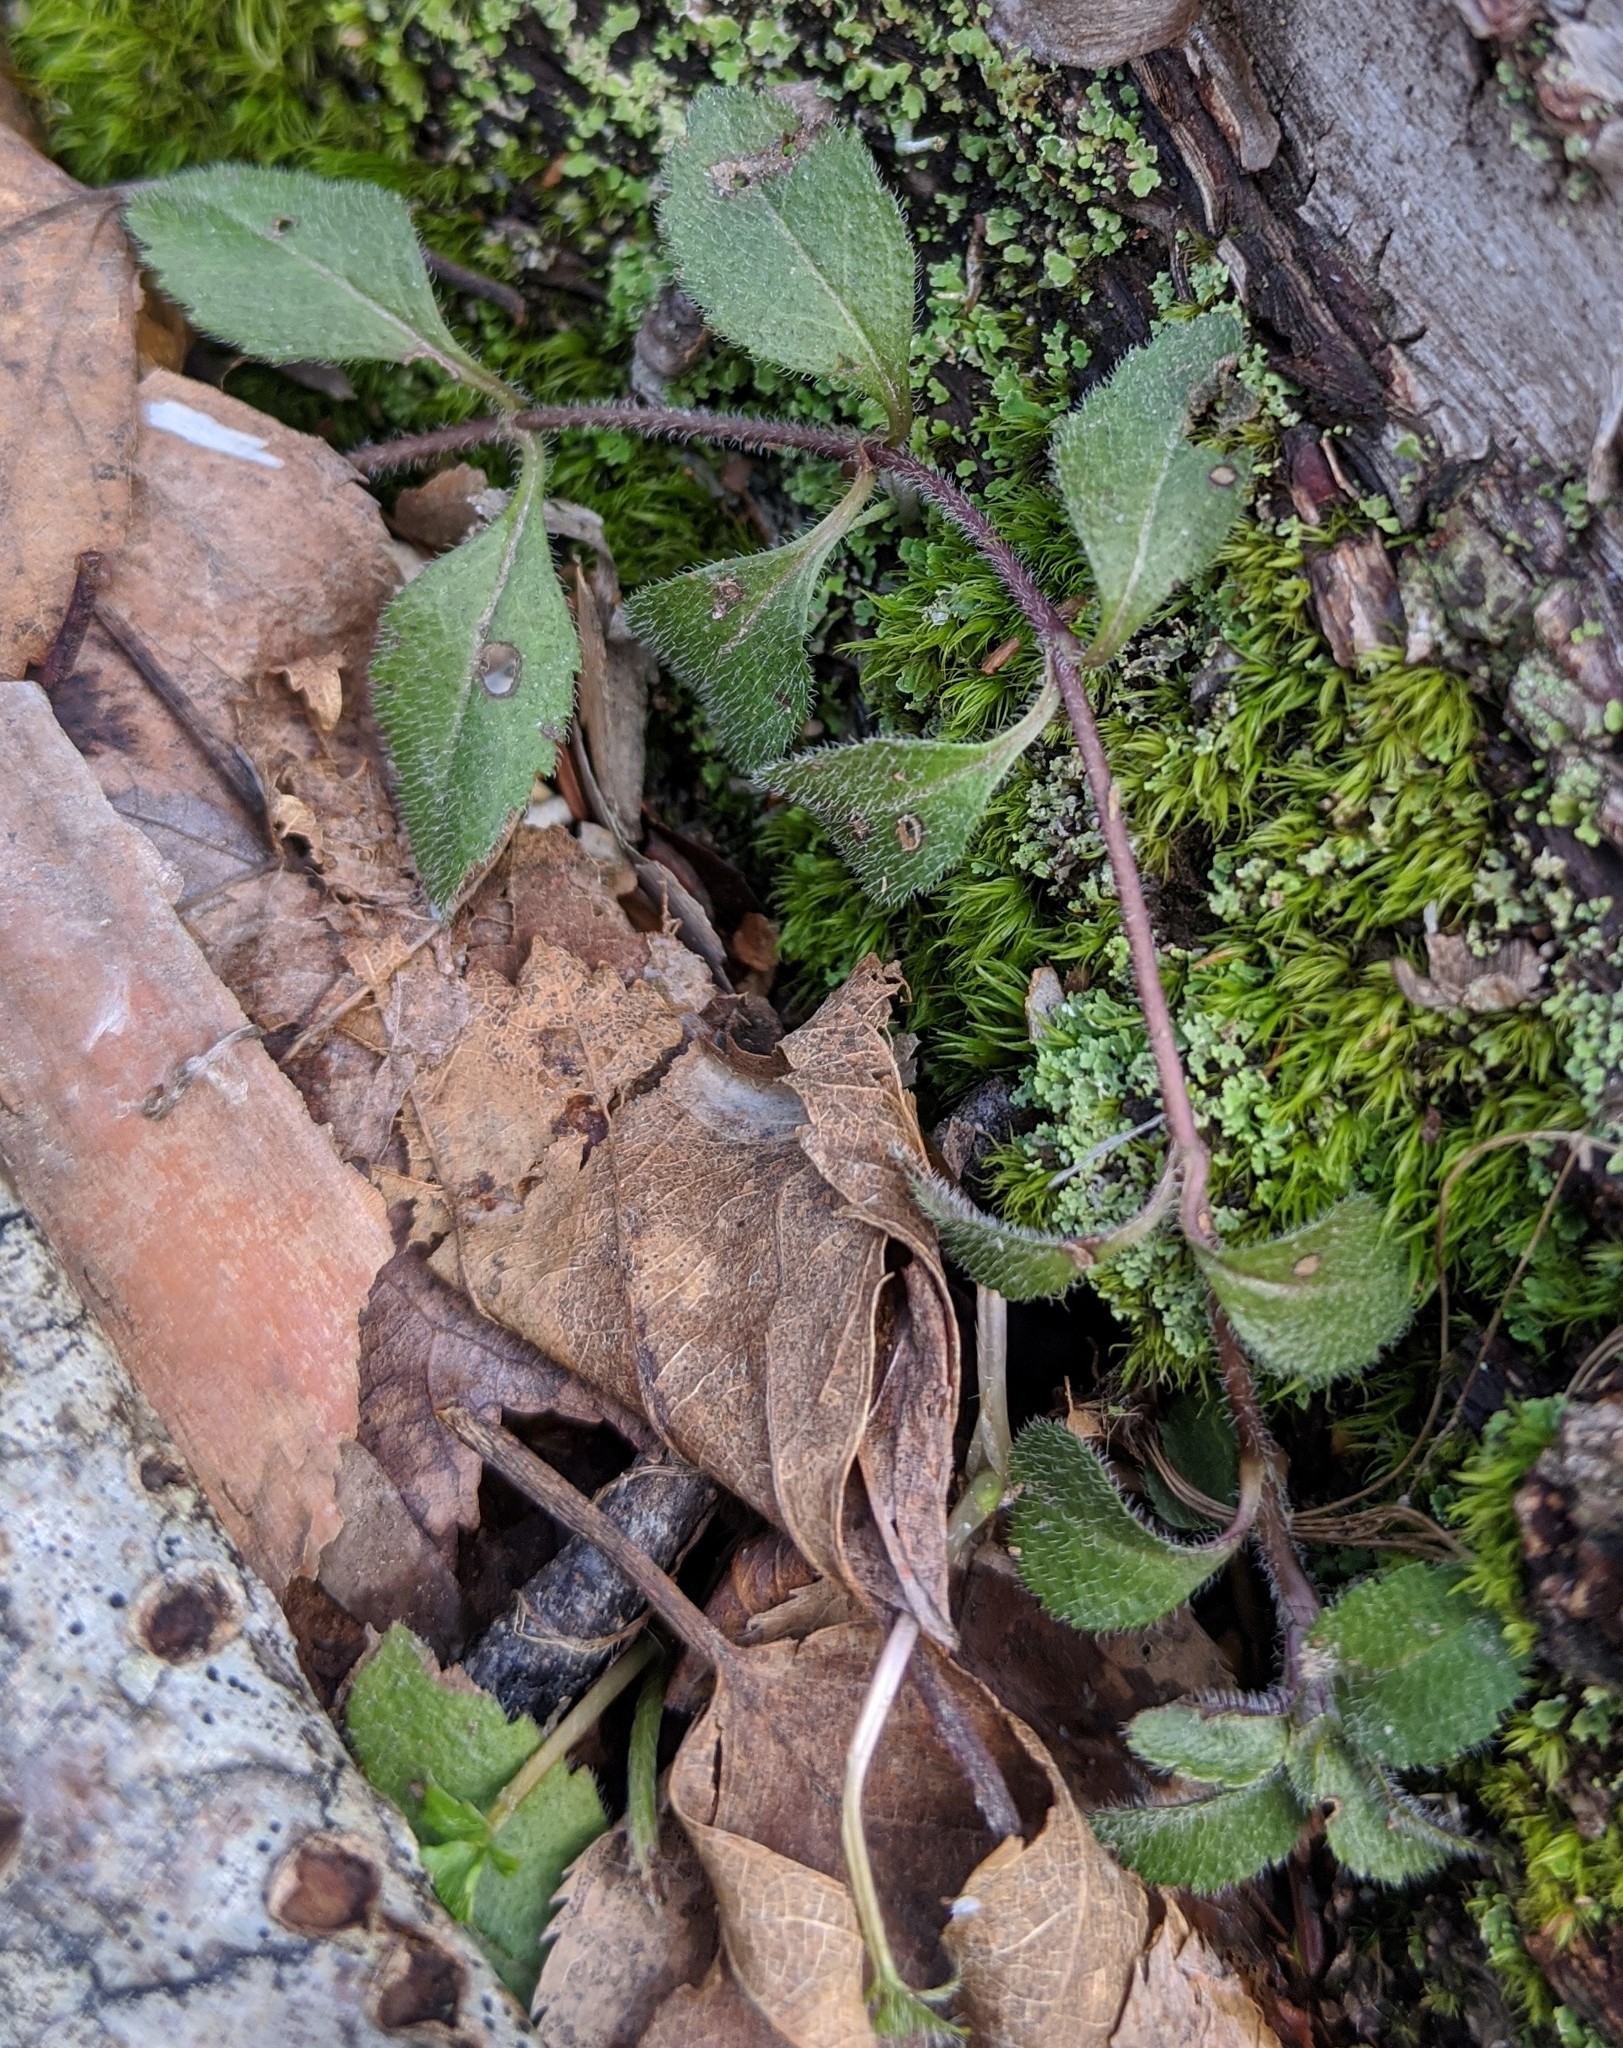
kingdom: Plantae
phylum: Tracheophyta
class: Magnoliopsida
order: Lamiales
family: Plantaginaceae
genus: Veronica
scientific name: Veronica officinalis
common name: Common speedwell
